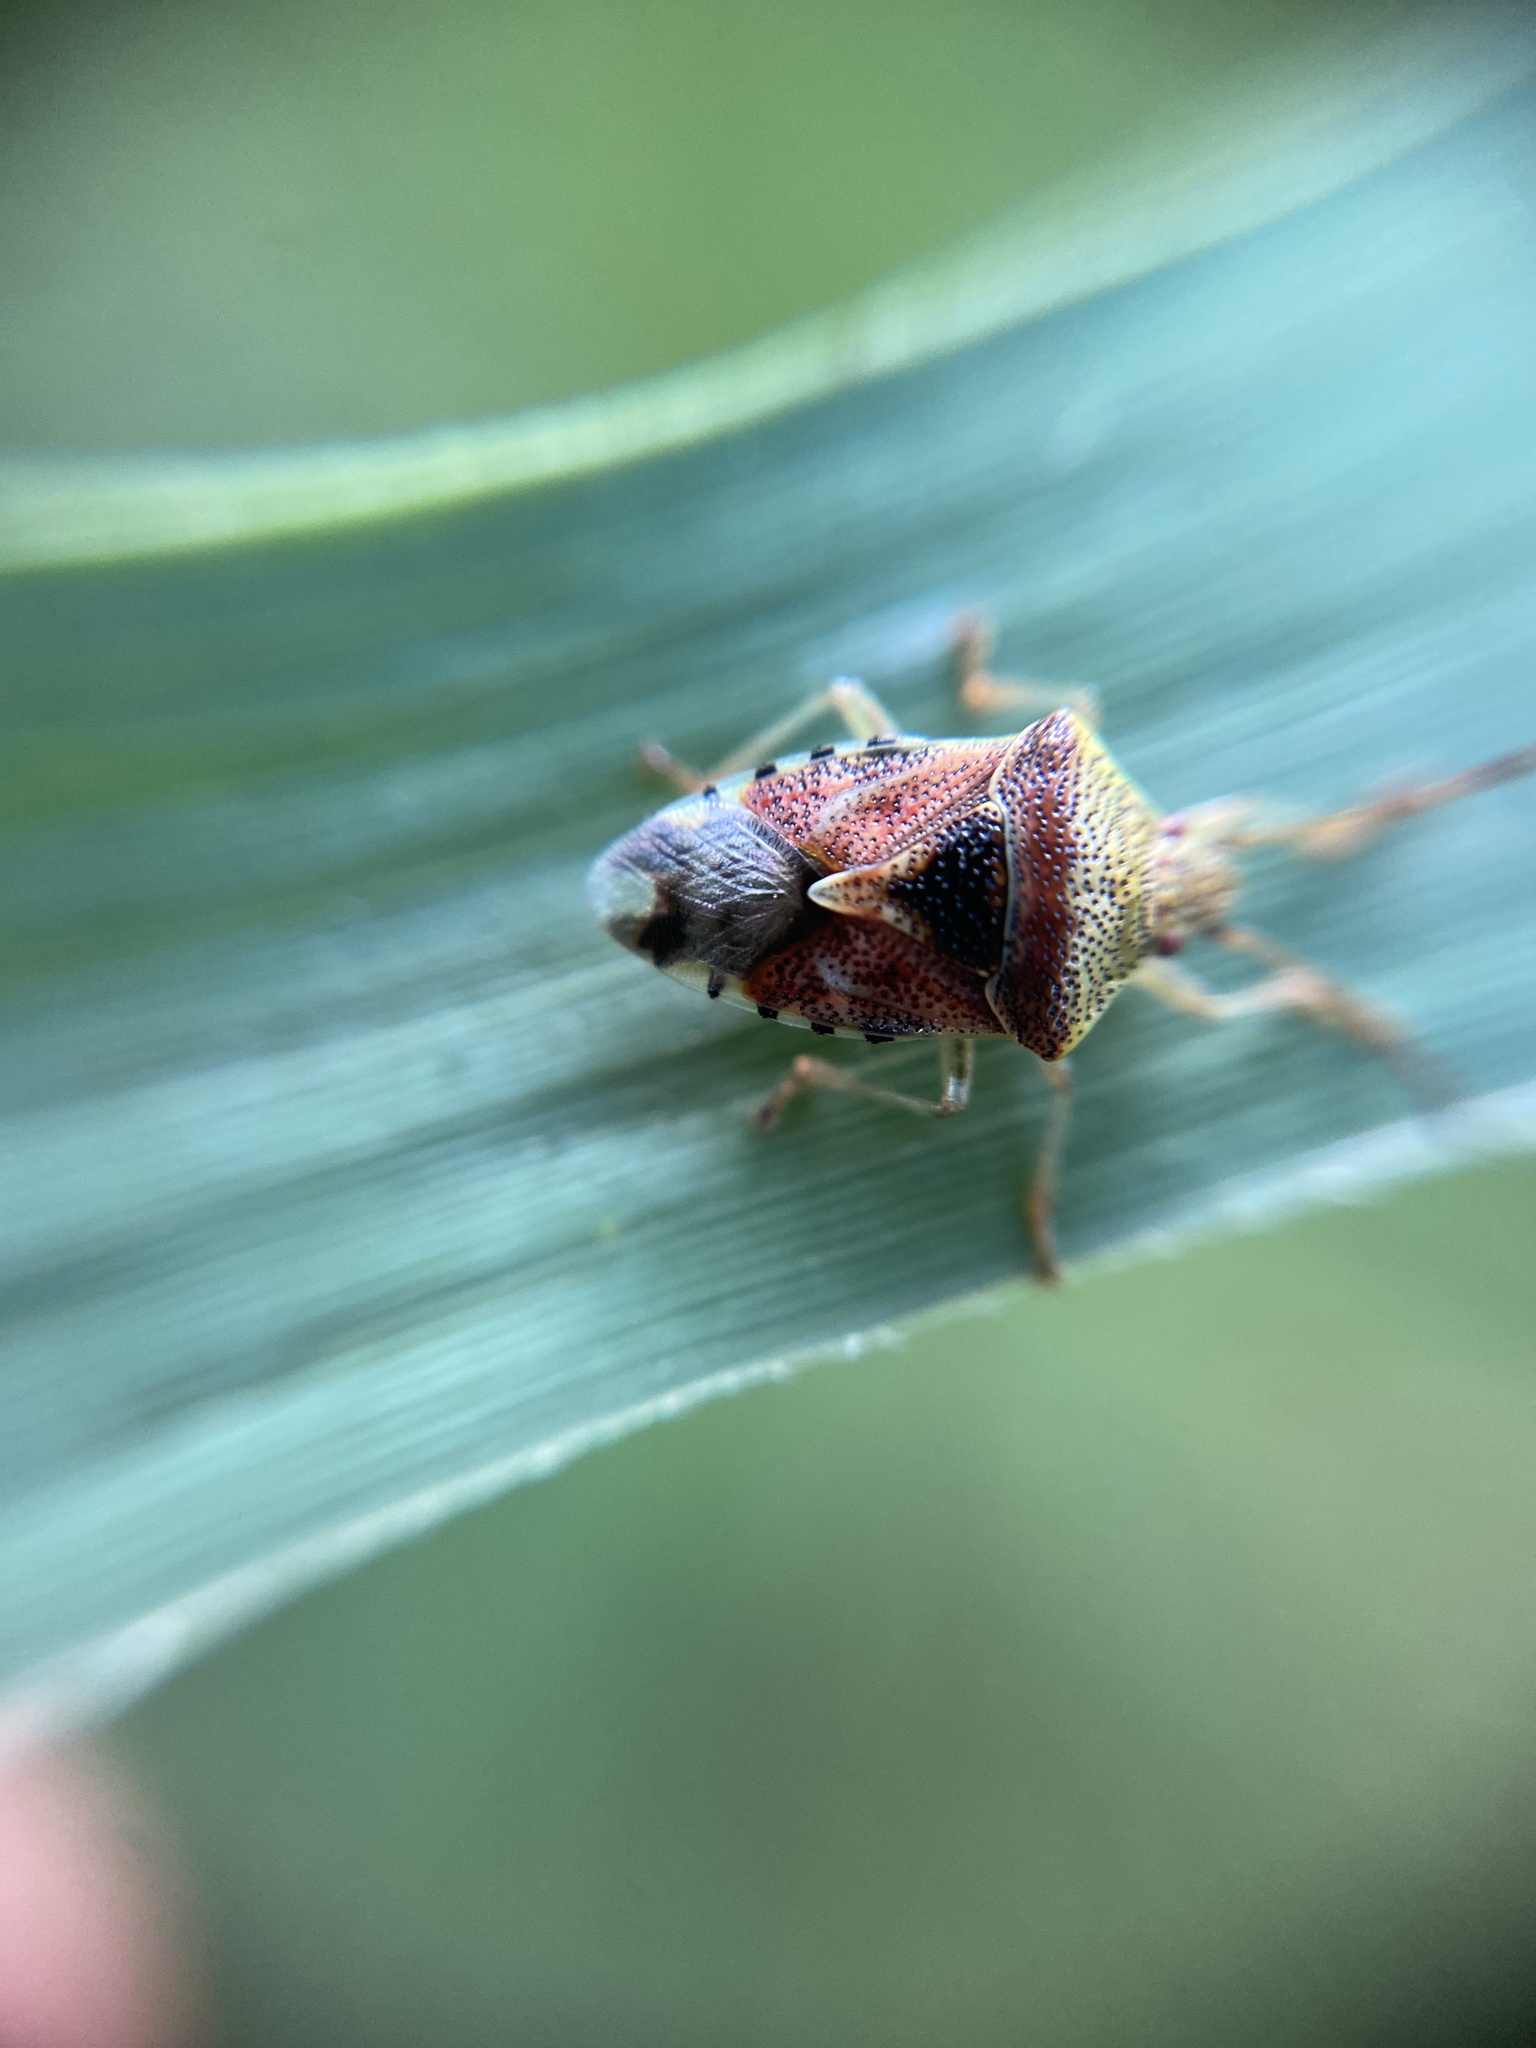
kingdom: Animalia
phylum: Arthropoda
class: Insecta
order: Hemiptera
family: Acanthosomatidae
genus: Elasmucha
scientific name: Elasmucha grisea
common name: Parent bug
